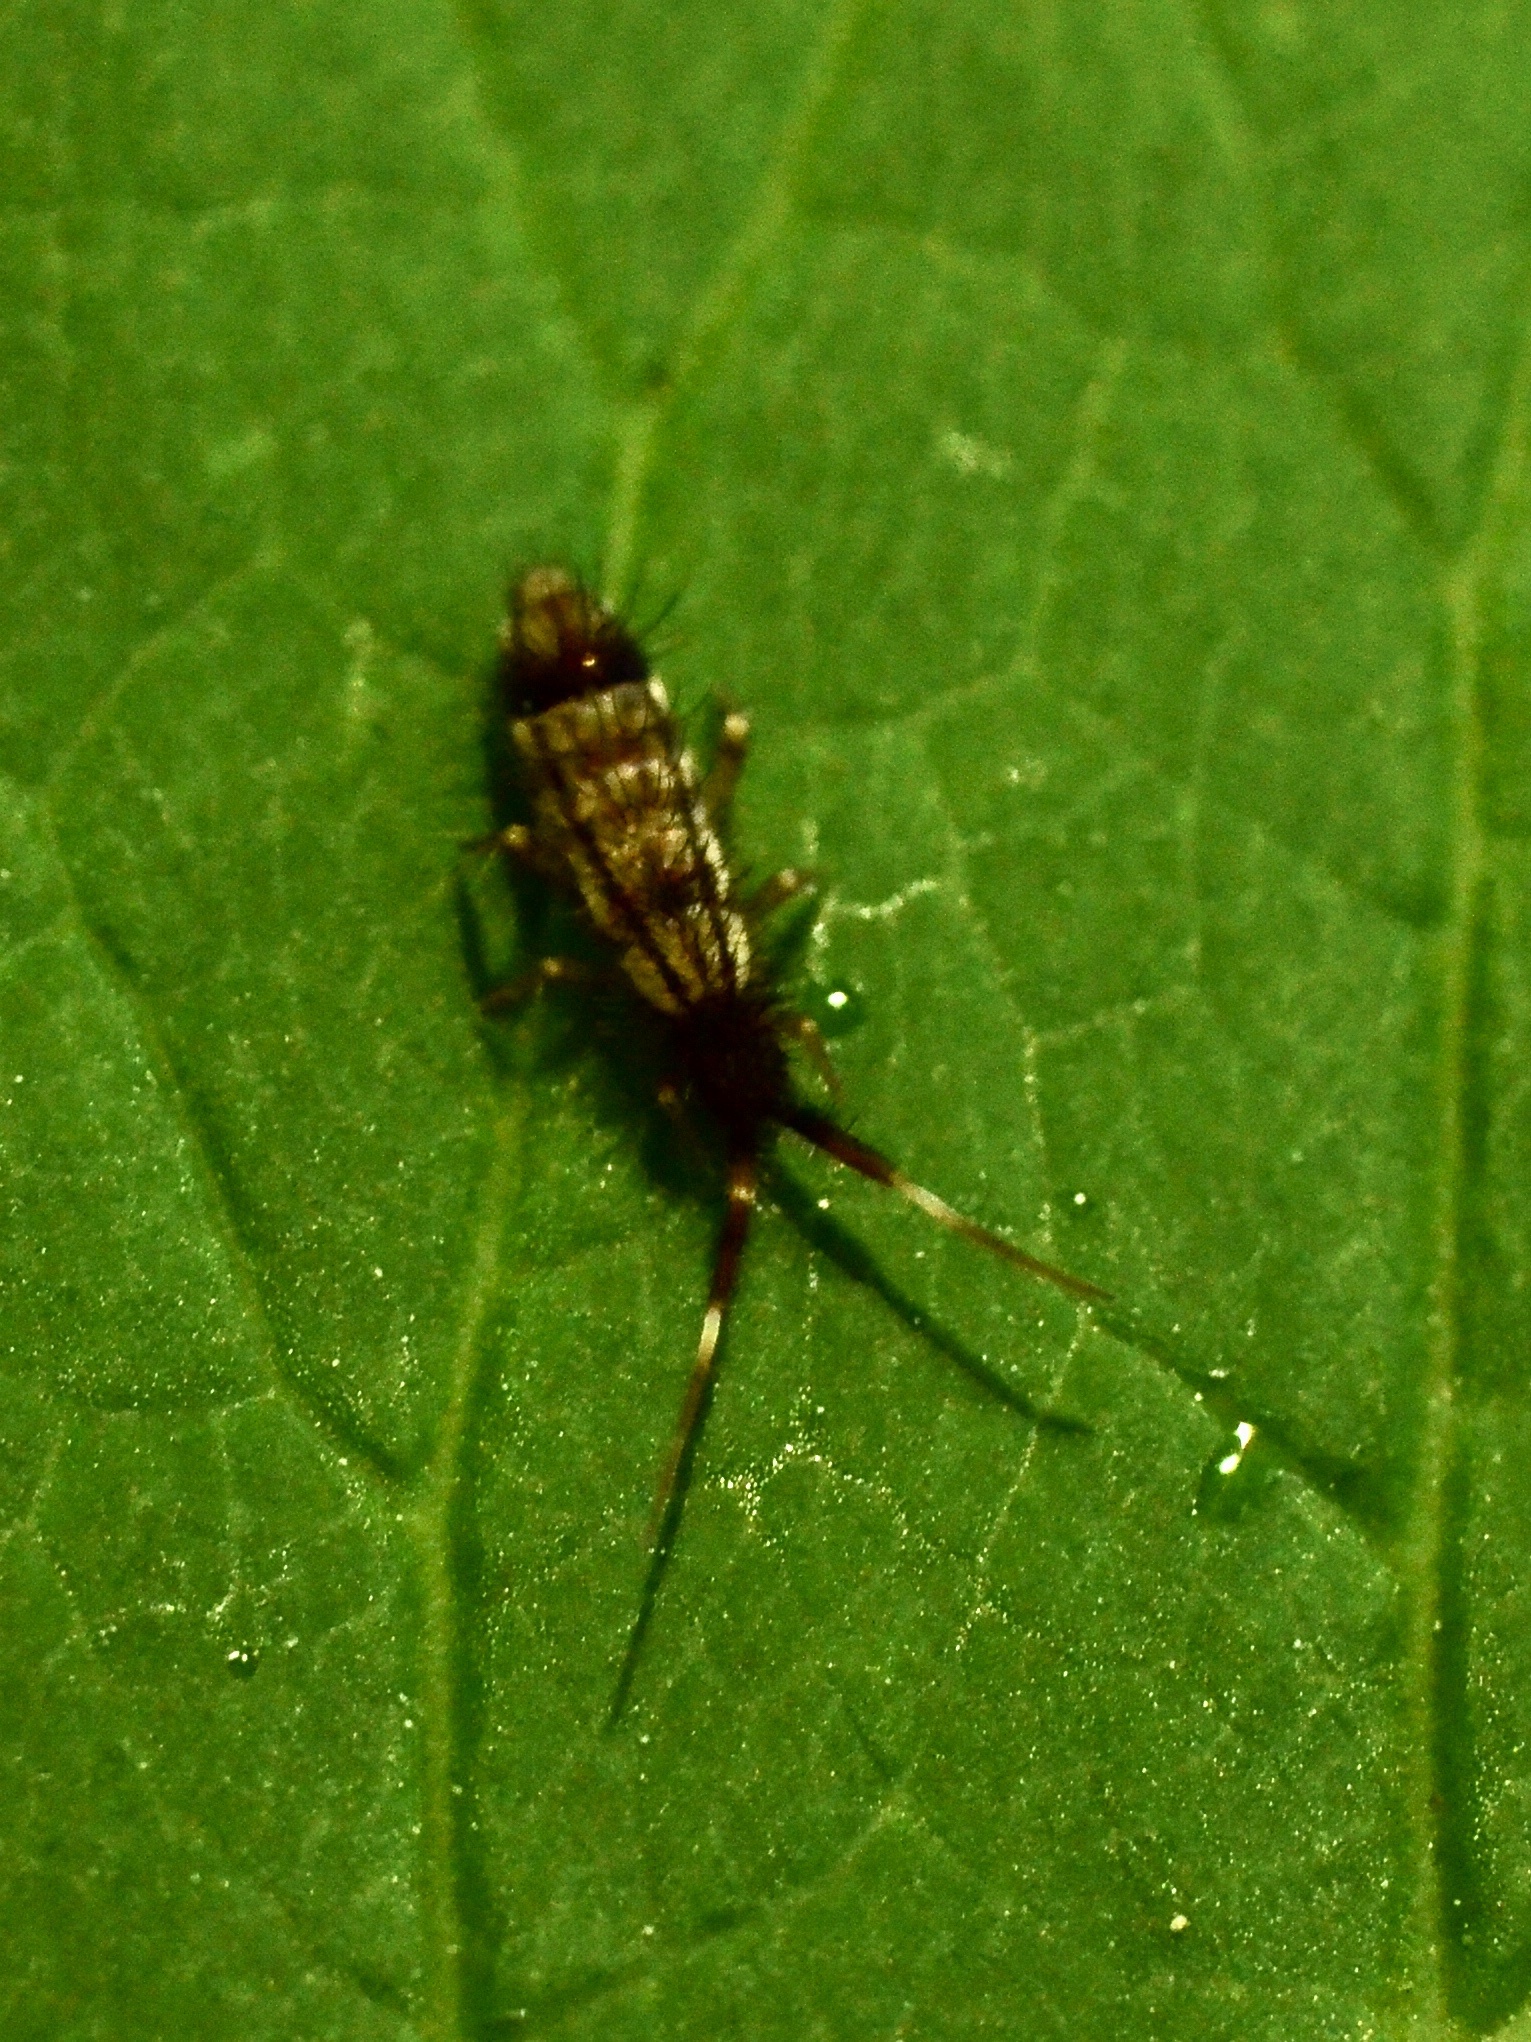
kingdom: Animalia
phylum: Arthropoda
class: Collembola
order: Entomobryomorpha
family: Entomobryidae
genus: Entomobrya
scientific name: Entomobrya nivalis
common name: Cosmopolitan springtail
